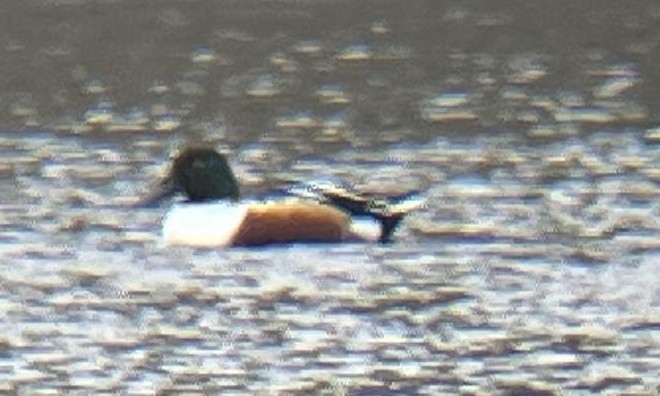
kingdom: Animalia
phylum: Chordata
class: Aves
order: Anseriformes
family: Anatidae
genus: Spatula
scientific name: Spatula clypeata
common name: Northern shoveler
